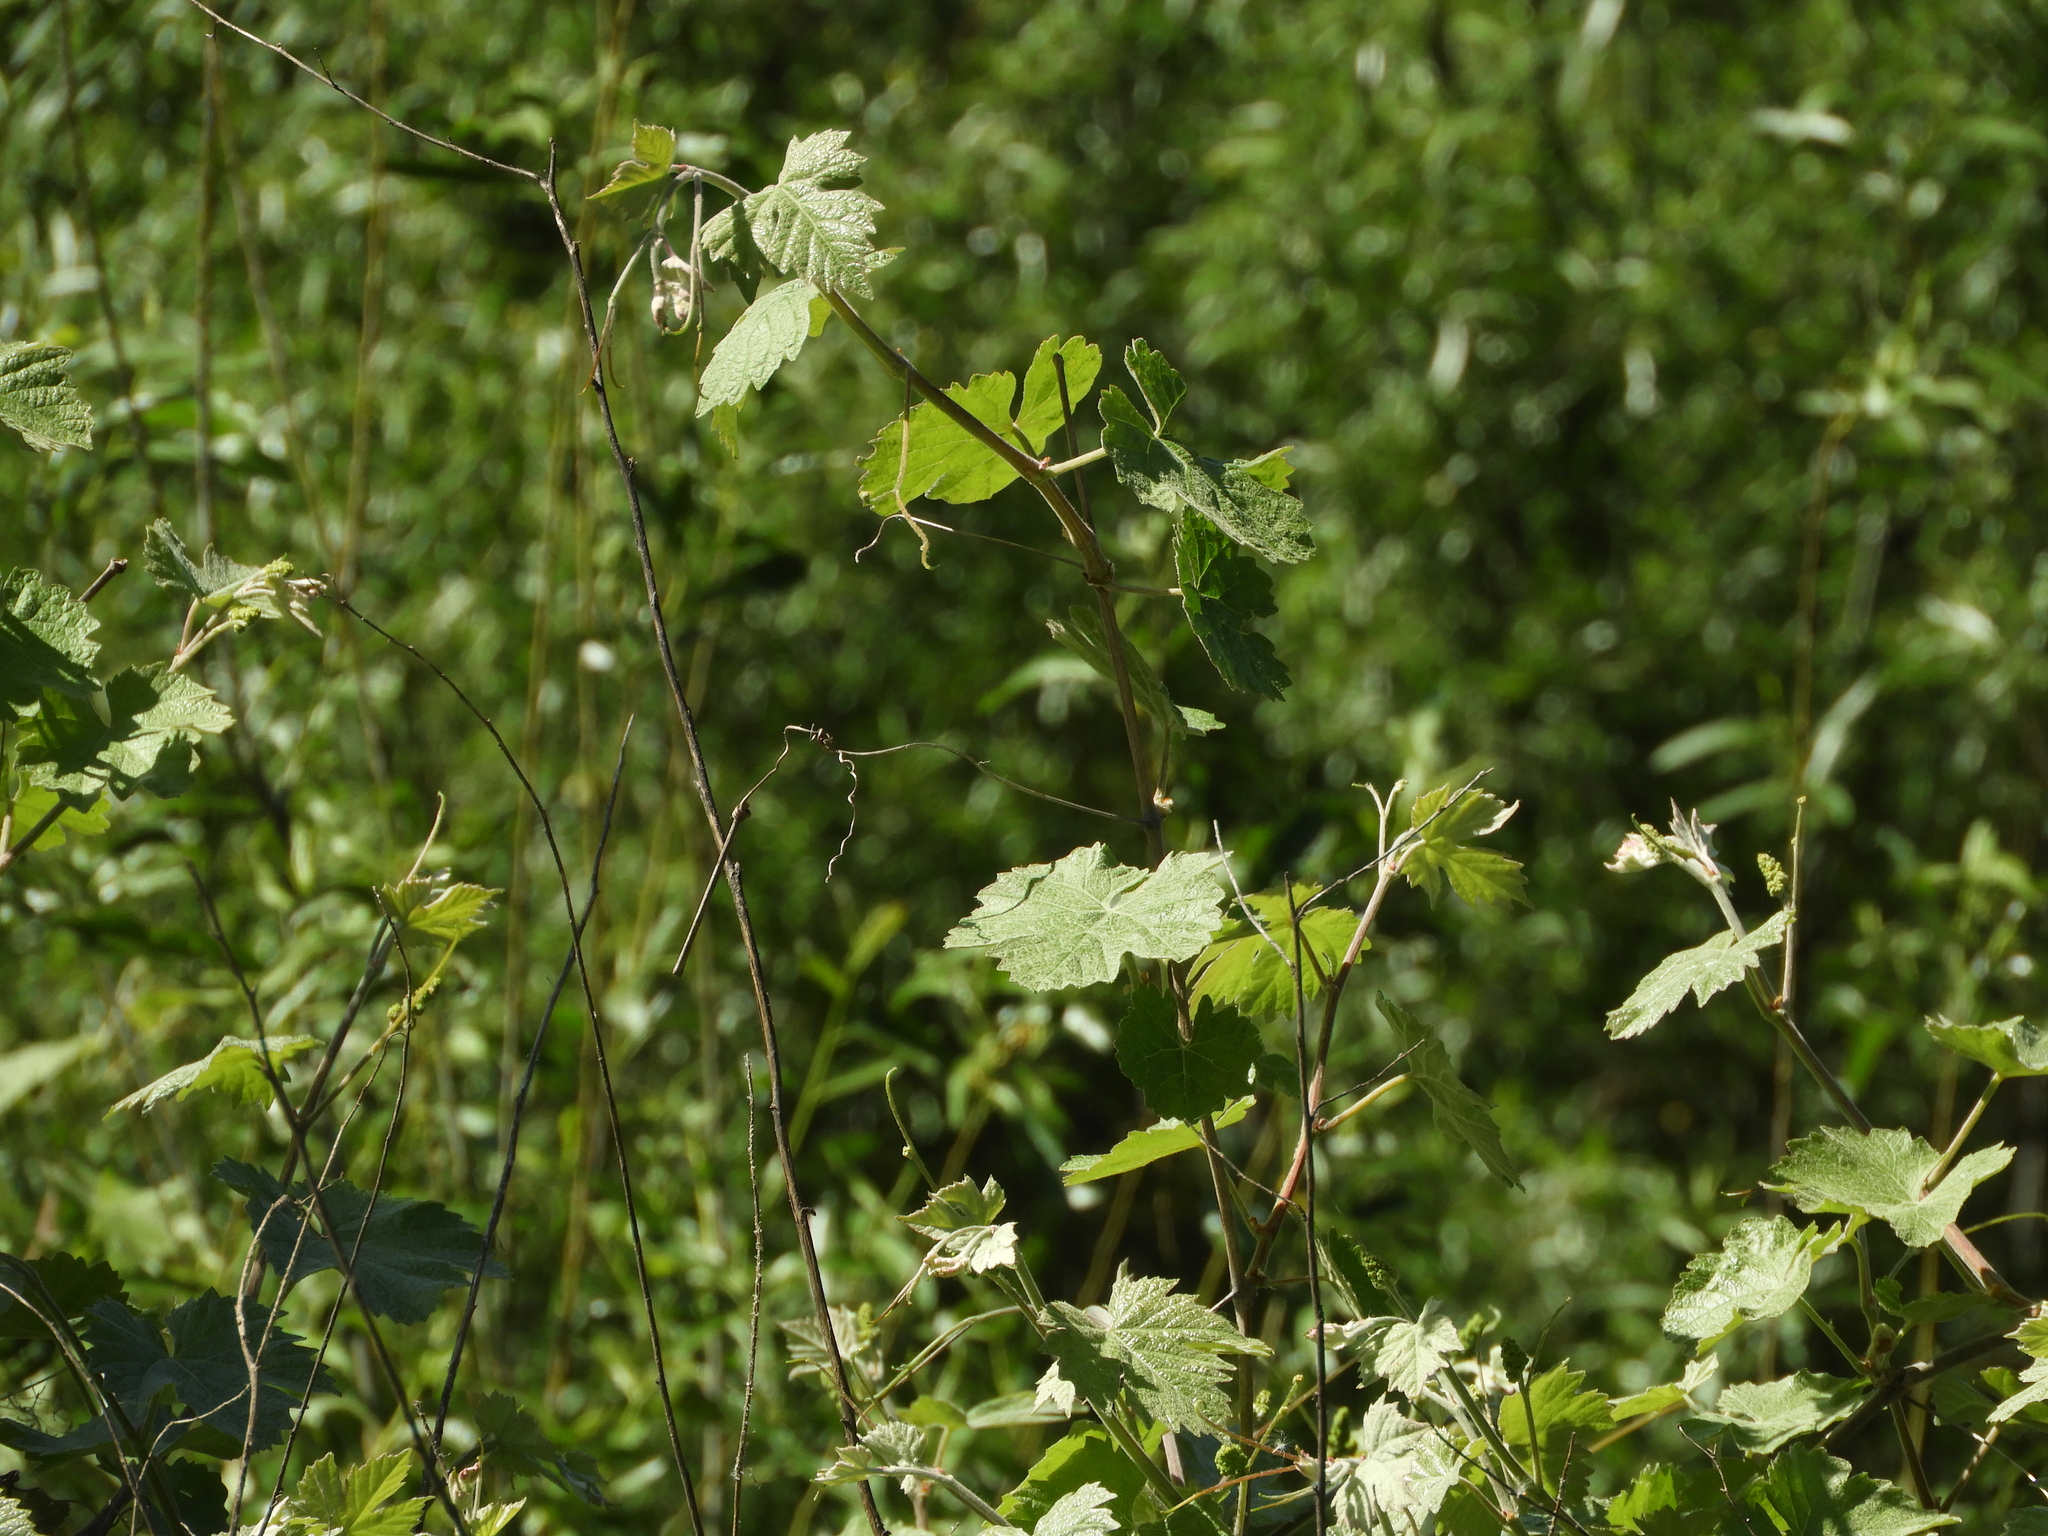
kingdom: Plantae
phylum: Tracheophyta
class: Magnoliopsida
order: Vitales
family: Vitaceae
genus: Vitis
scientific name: Vitis californica
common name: California wild grape
